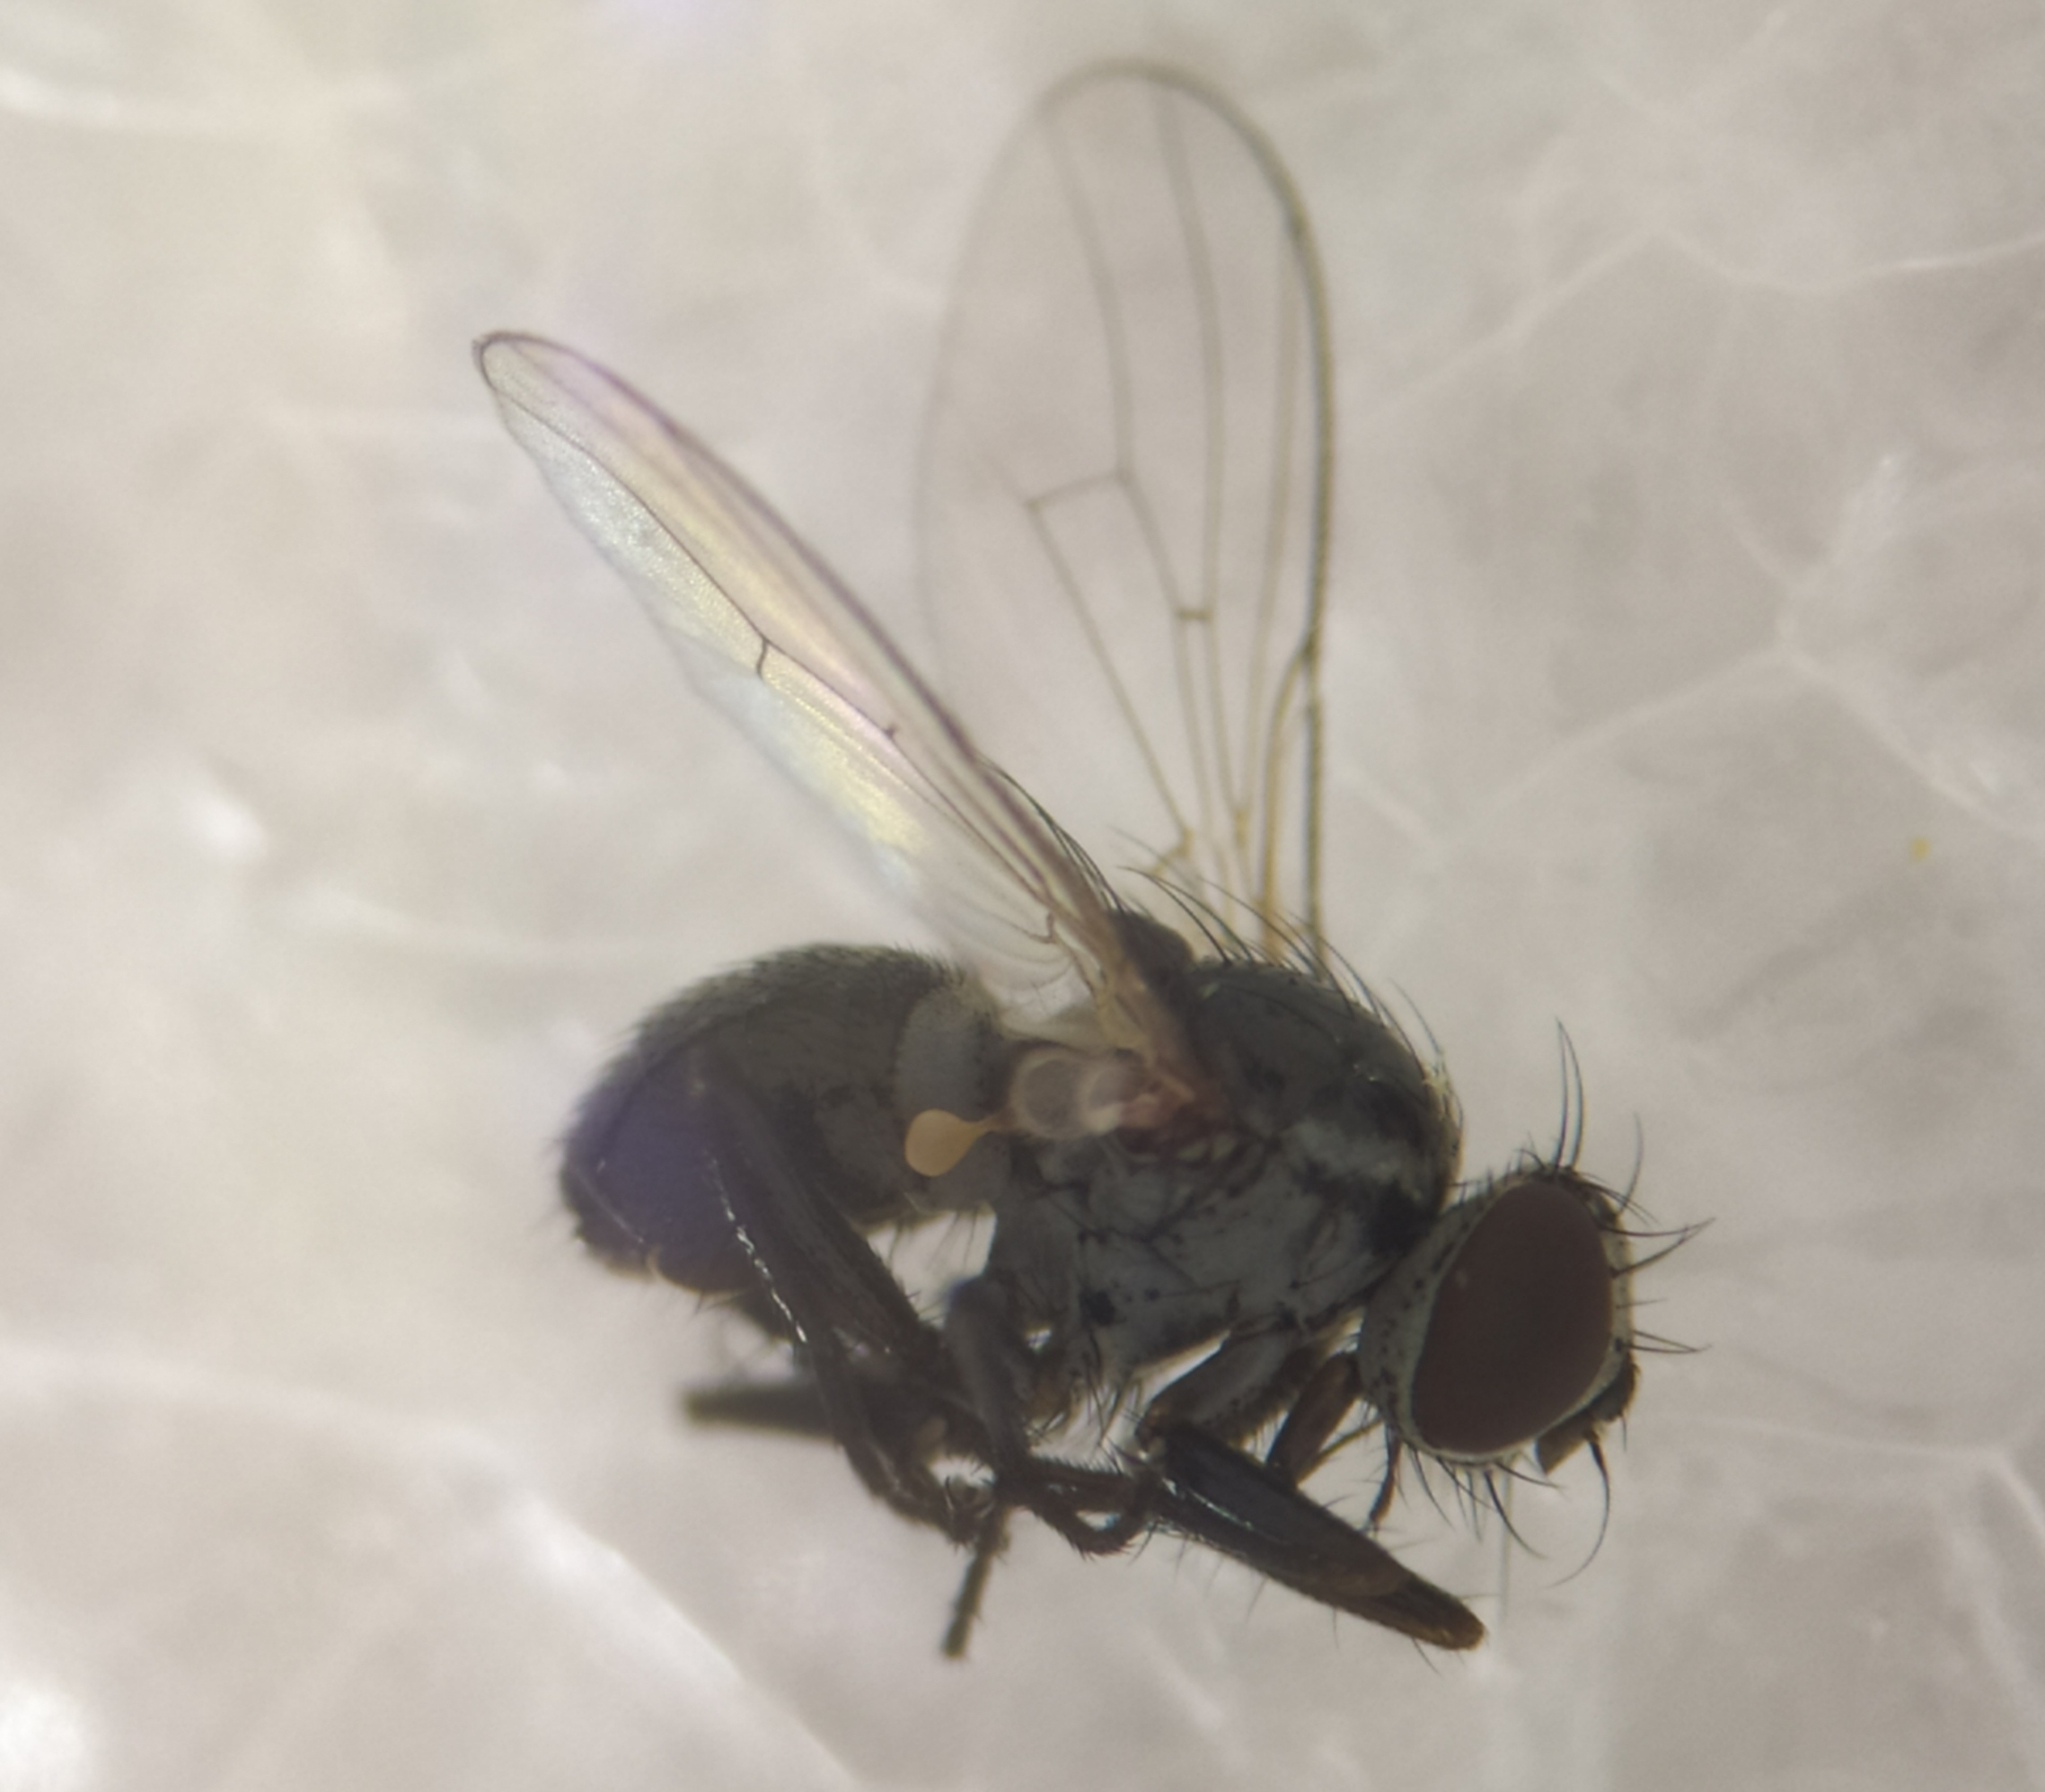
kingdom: Animalia
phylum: Arthropoda
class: Insecta
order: Diptera
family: Muscidae
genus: Coenosia
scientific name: Coenosia atra
